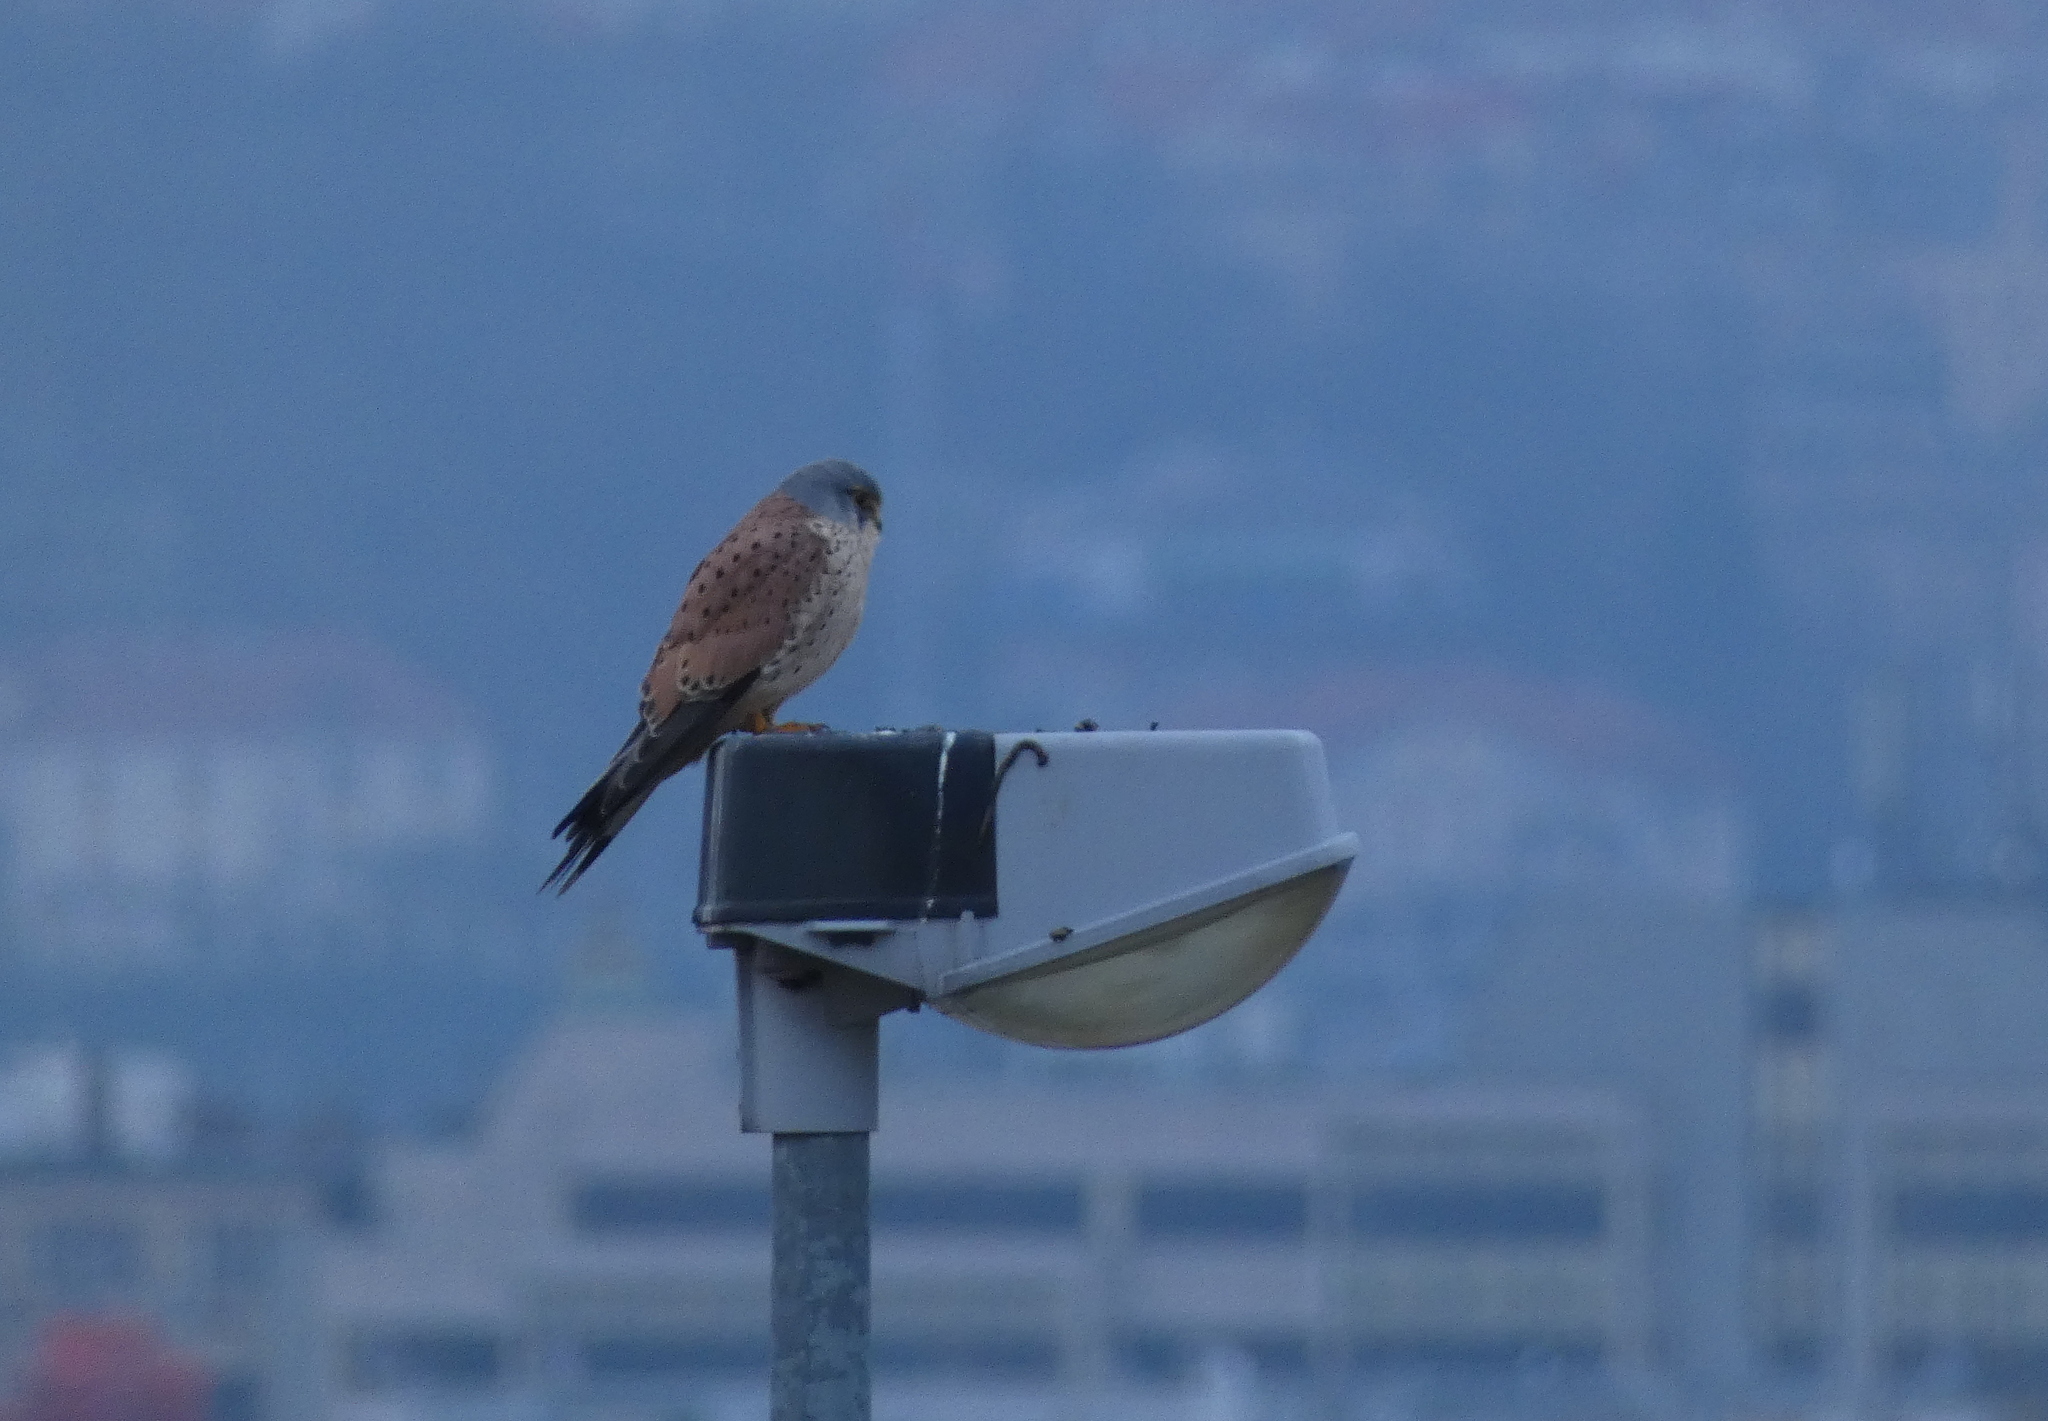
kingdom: Animalia
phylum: Chordata
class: Aves
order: Falconiformes
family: Falconidae
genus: Falco
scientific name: Falco tinnunculus
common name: Common kestrel
